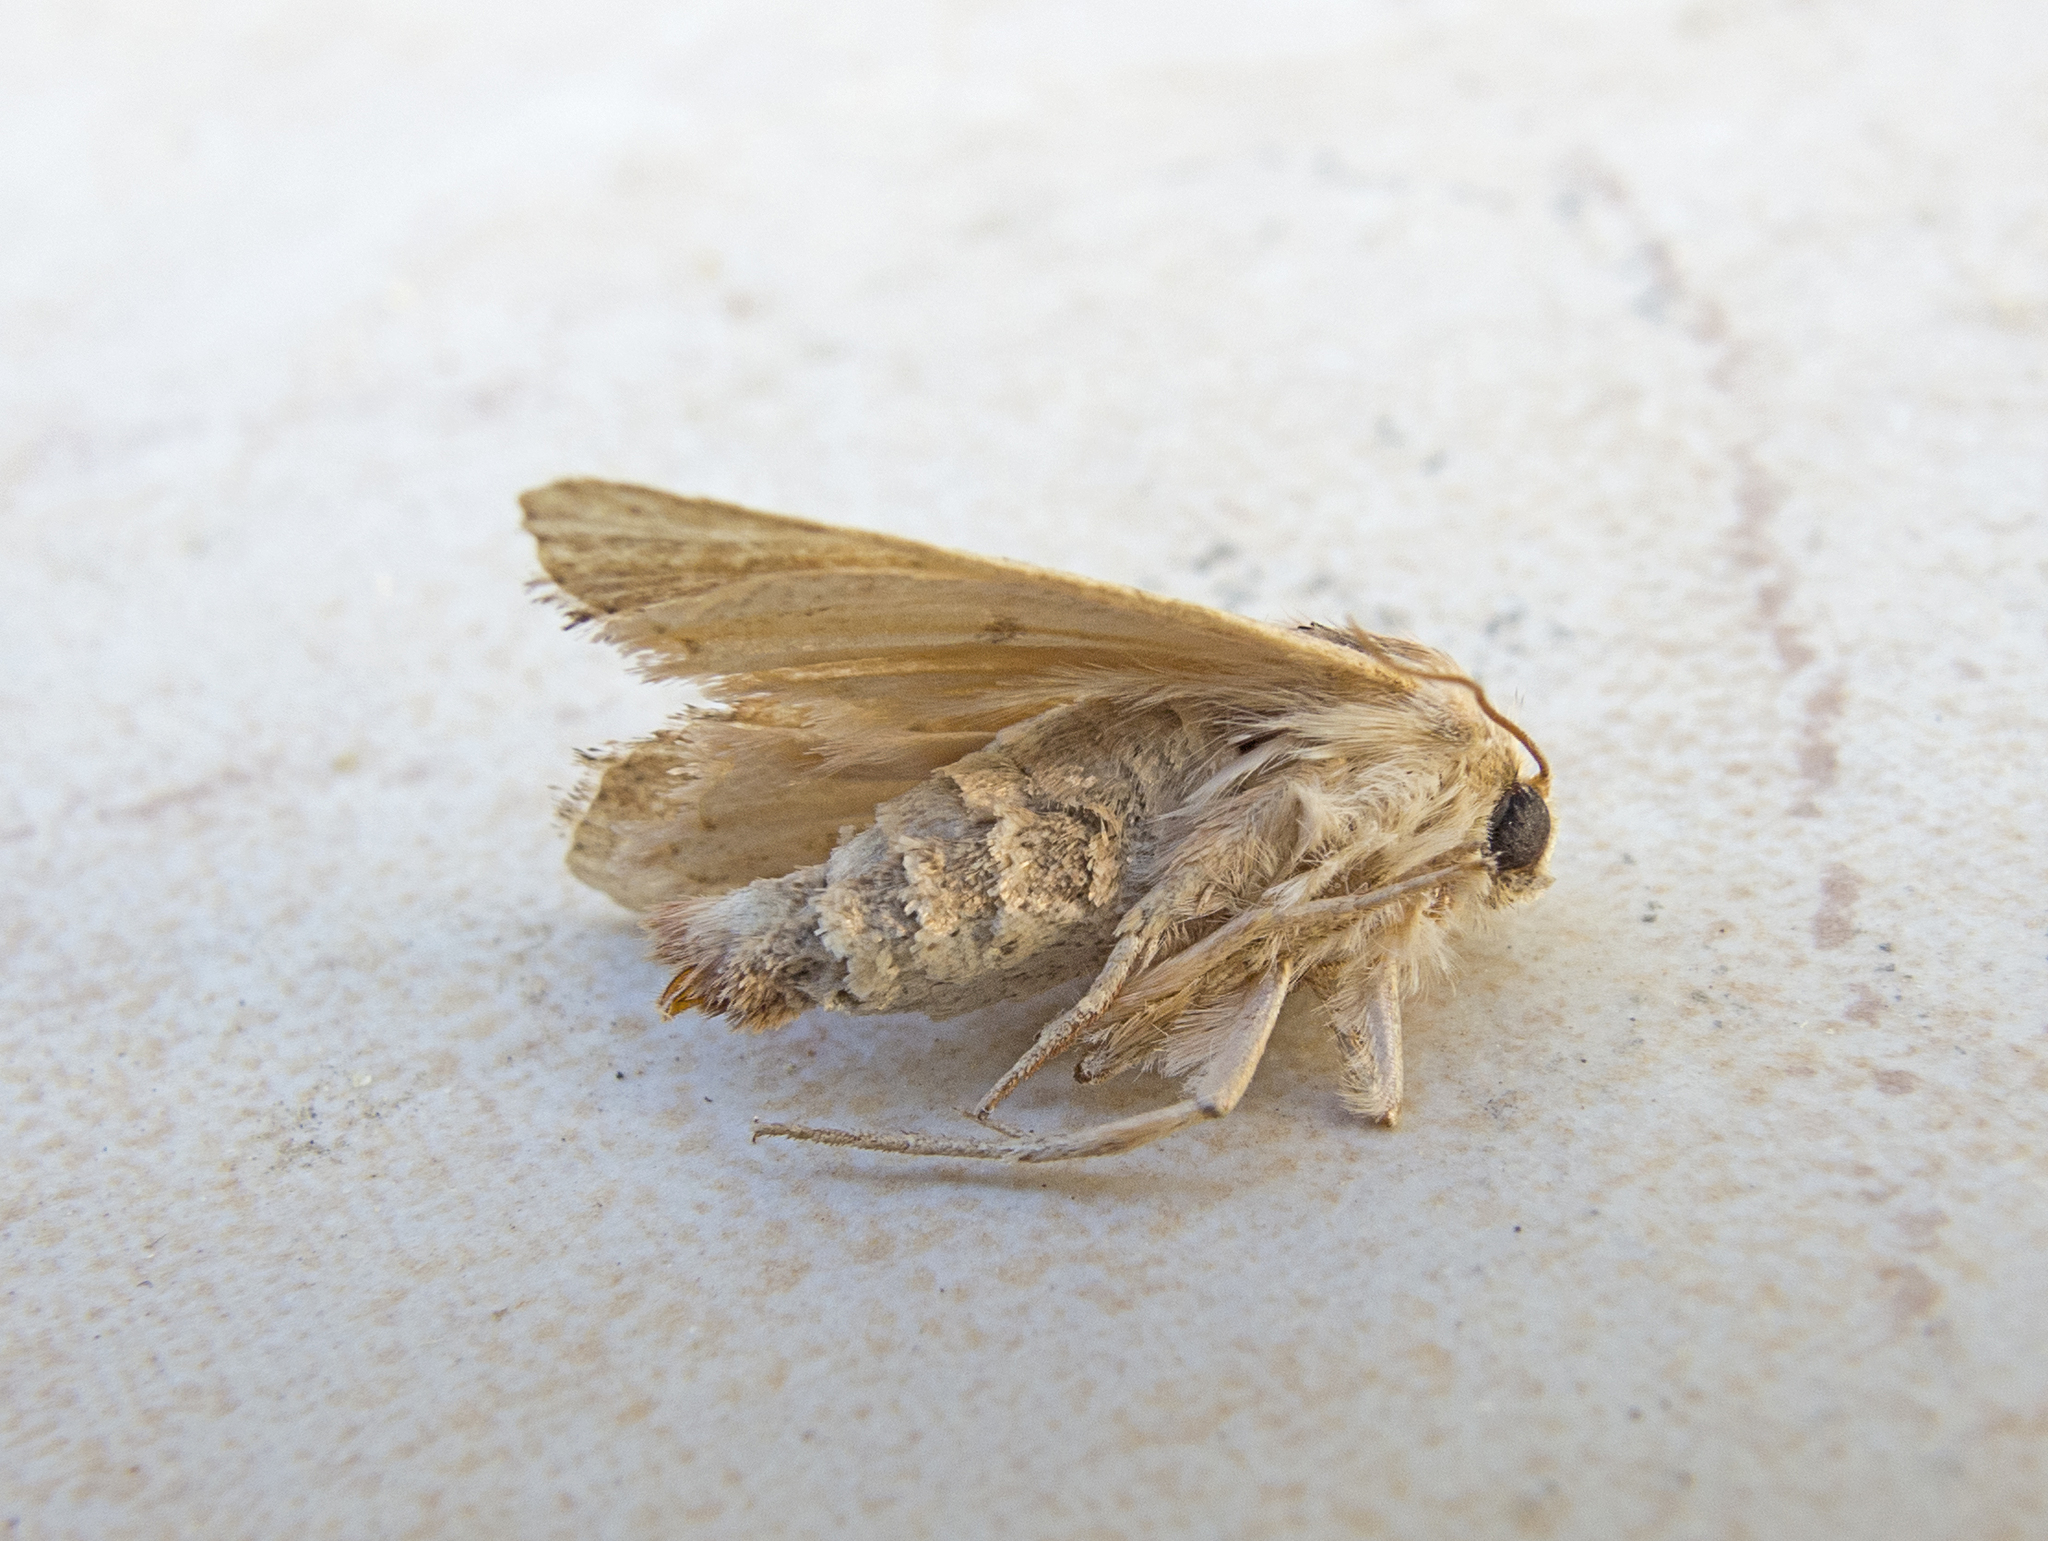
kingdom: Animalia
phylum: Arthropoda
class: Insecta
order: Lepidoptera
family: Noctuidae
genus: Luperina
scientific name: Luperina dumerilii
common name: Dumeril's rustic
